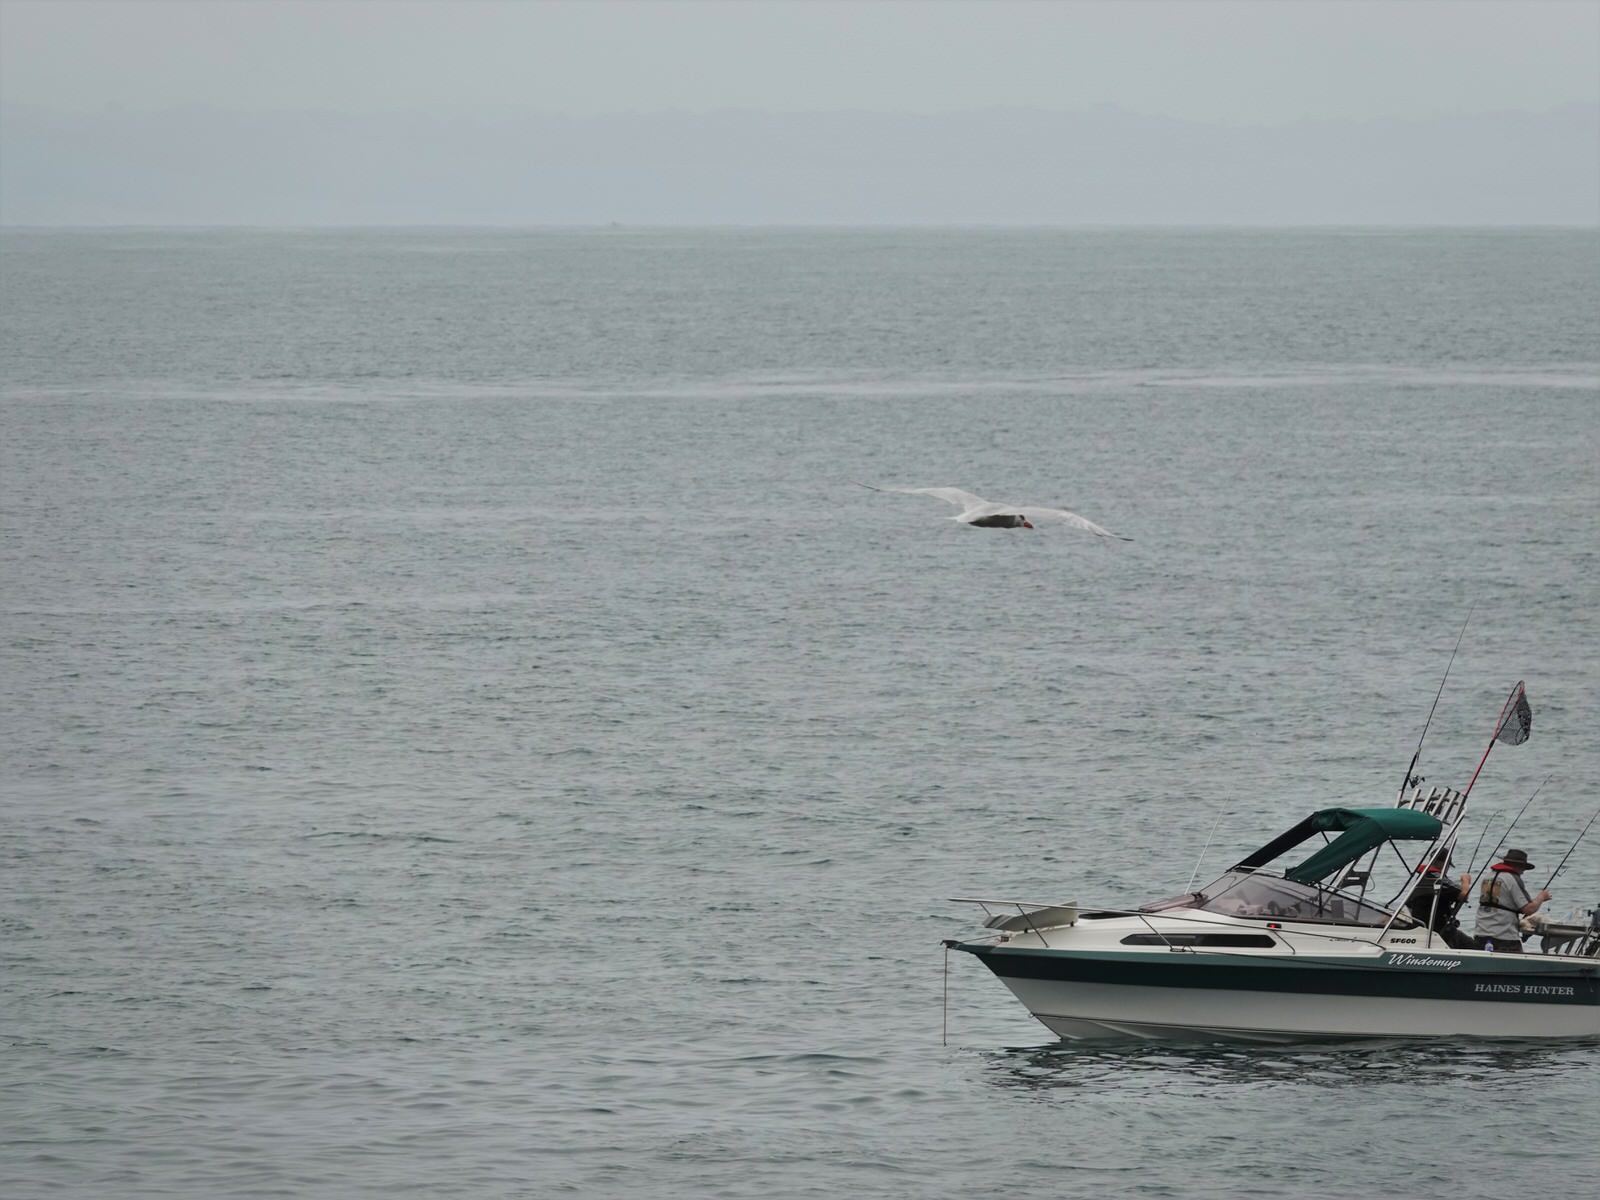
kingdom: Animalia
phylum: Chordata
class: Aves
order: Charadriiformes
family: Laridae
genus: Hydroprogne
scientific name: Hydroprogne caspia
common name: Caspian tern
